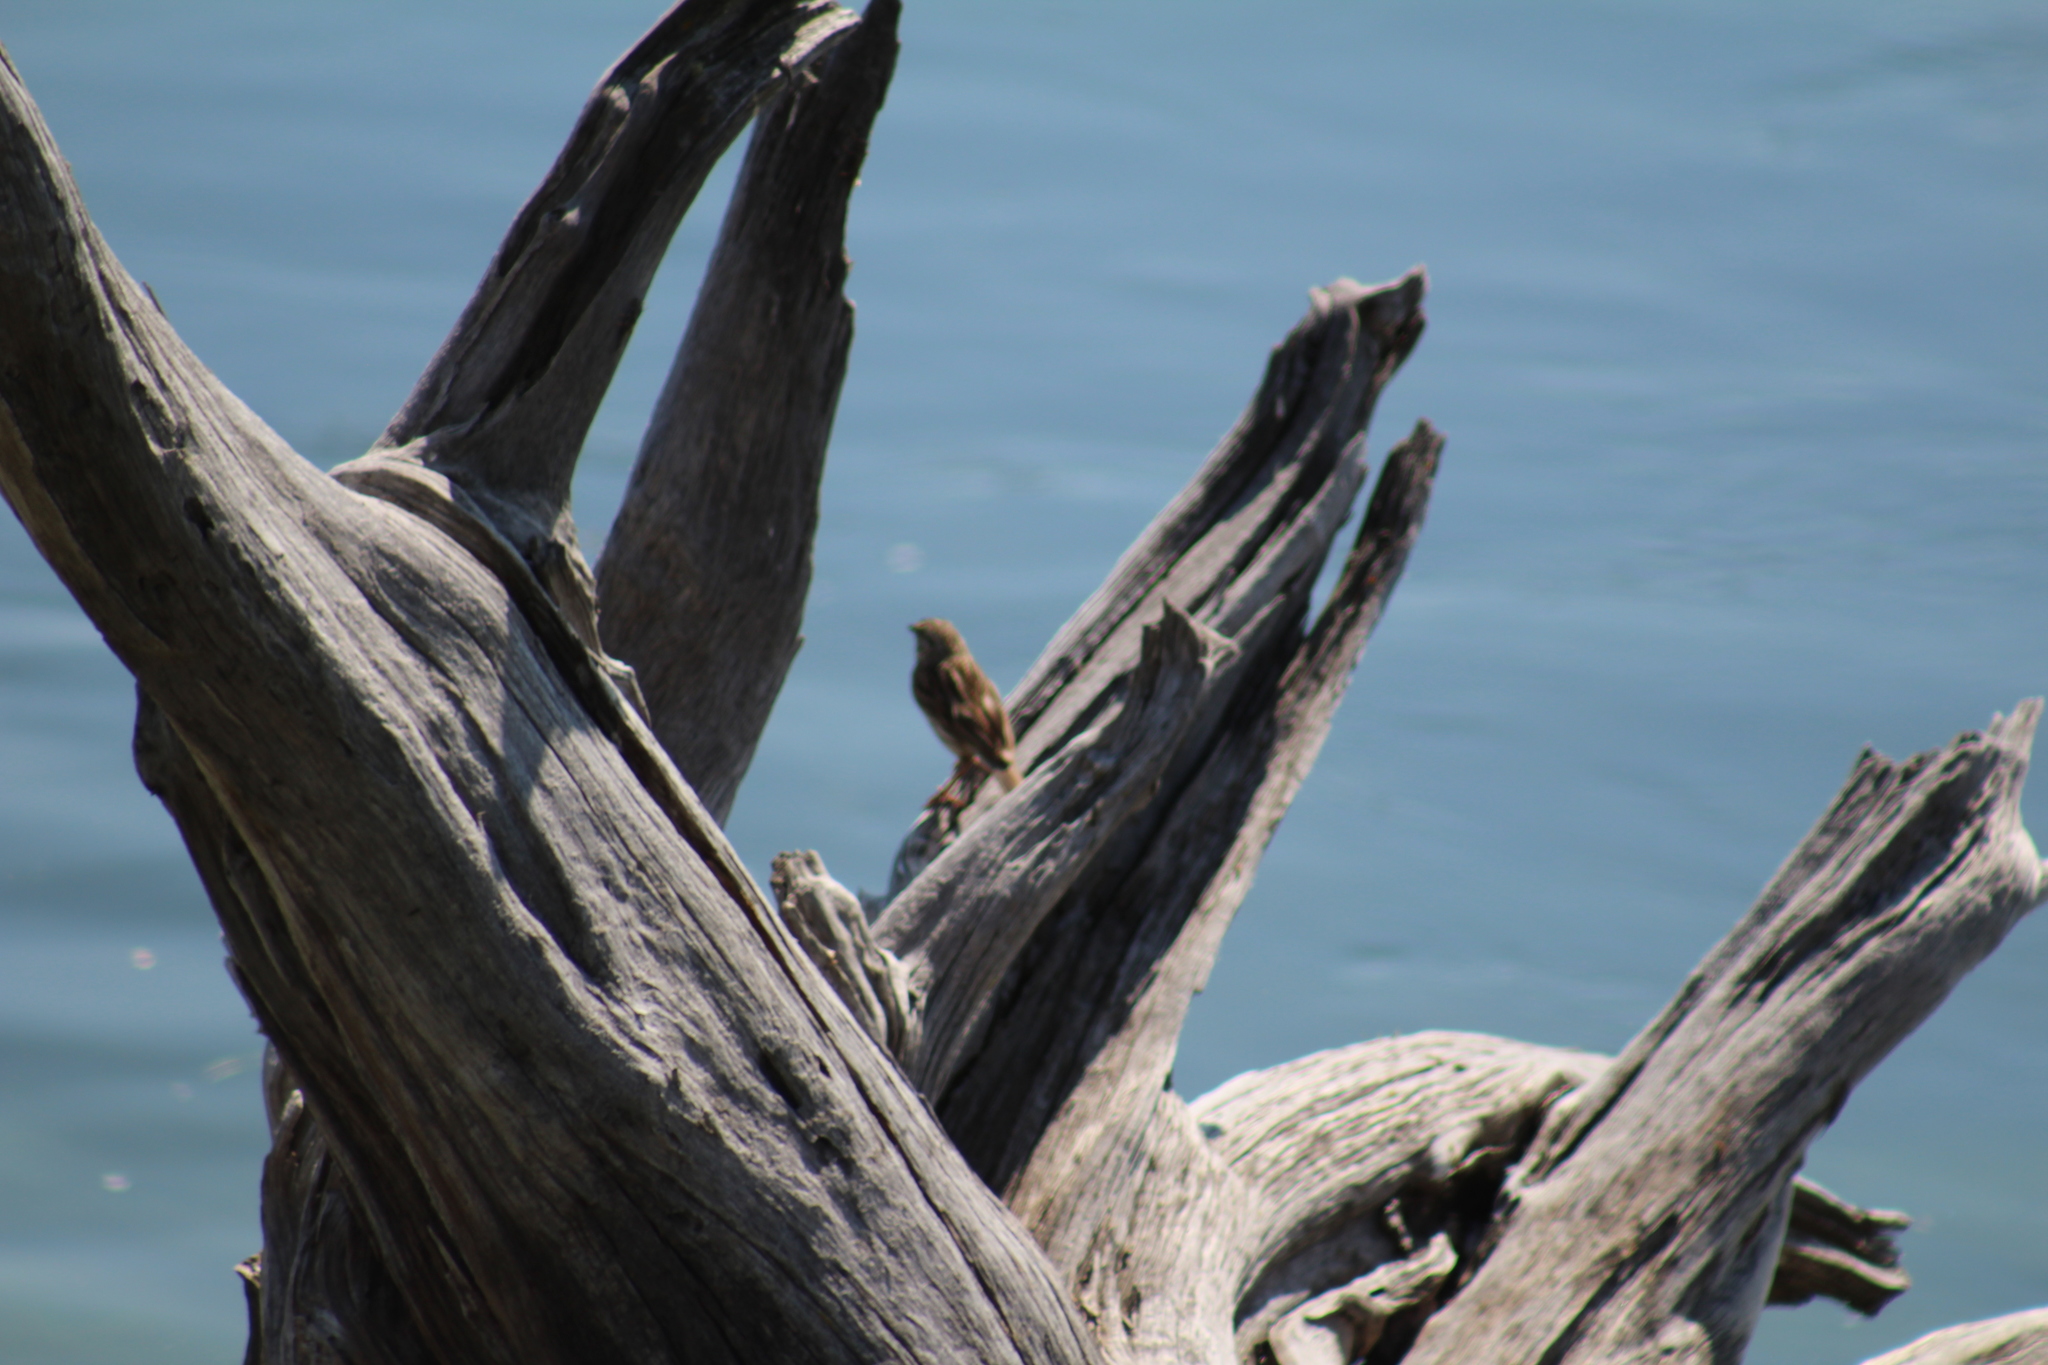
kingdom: Animalia
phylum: Chordata
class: Aves
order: Passeriformes
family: Passerellidae
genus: Spizella
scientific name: Spizella passerina
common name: Chipping sparrow
